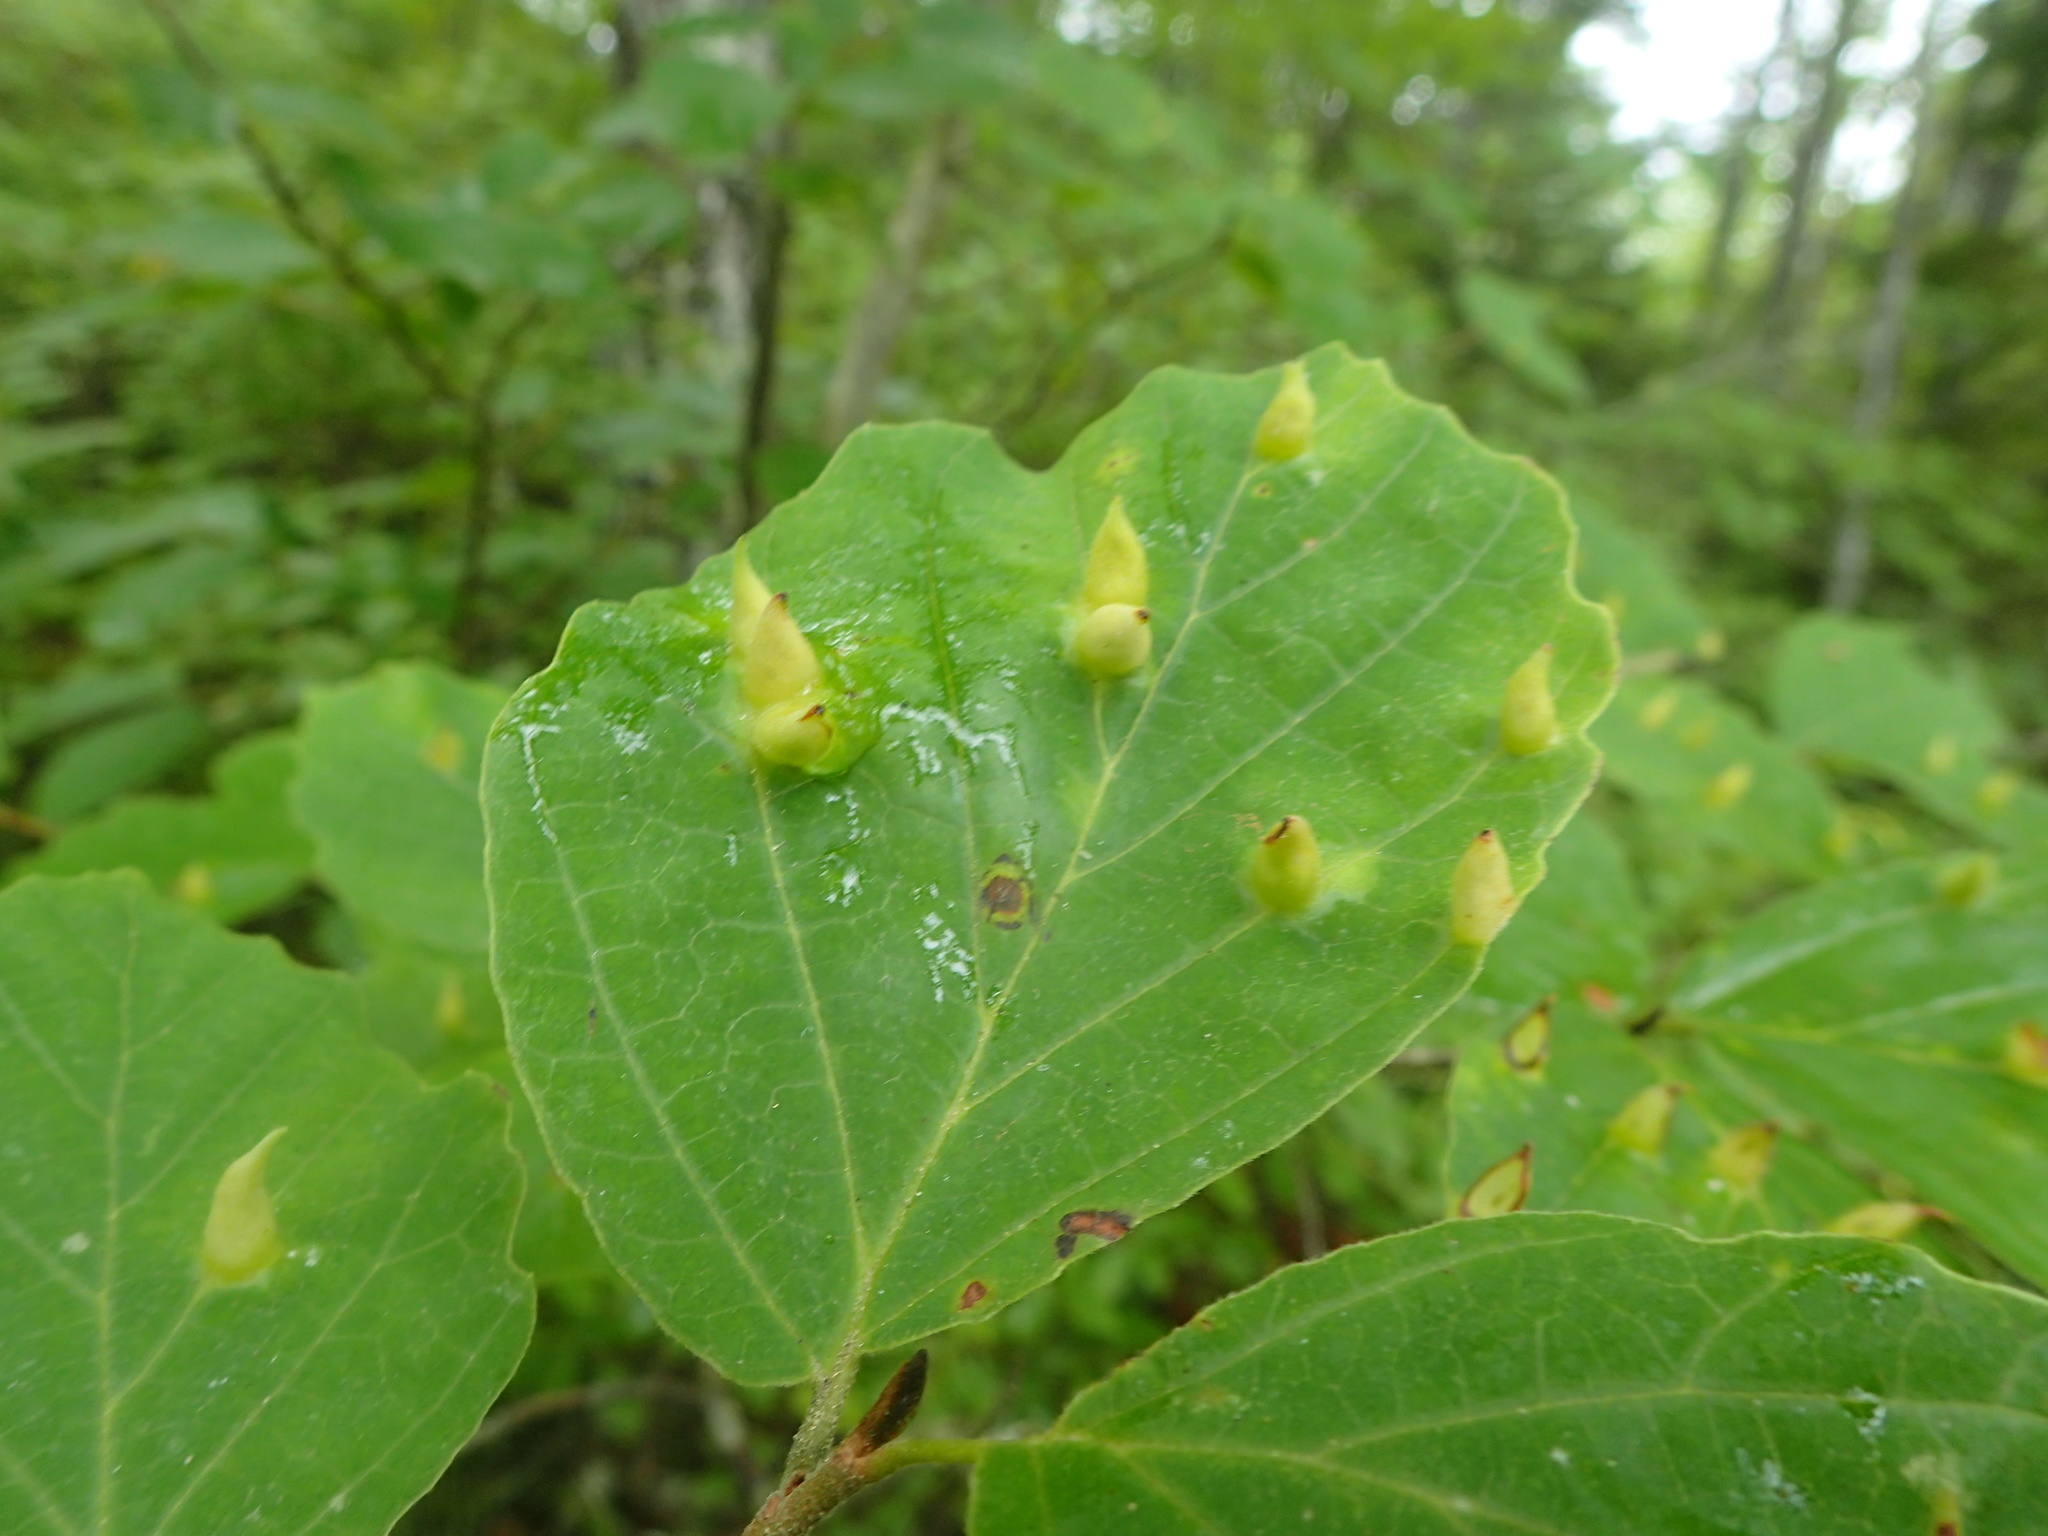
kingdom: Animalia
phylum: Arthropoda
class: Insecta
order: Hemiptera
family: Aphididae
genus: Hormaphis
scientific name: Hormaphis hamamelidis
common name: Witch-hazel cone gall aphid
